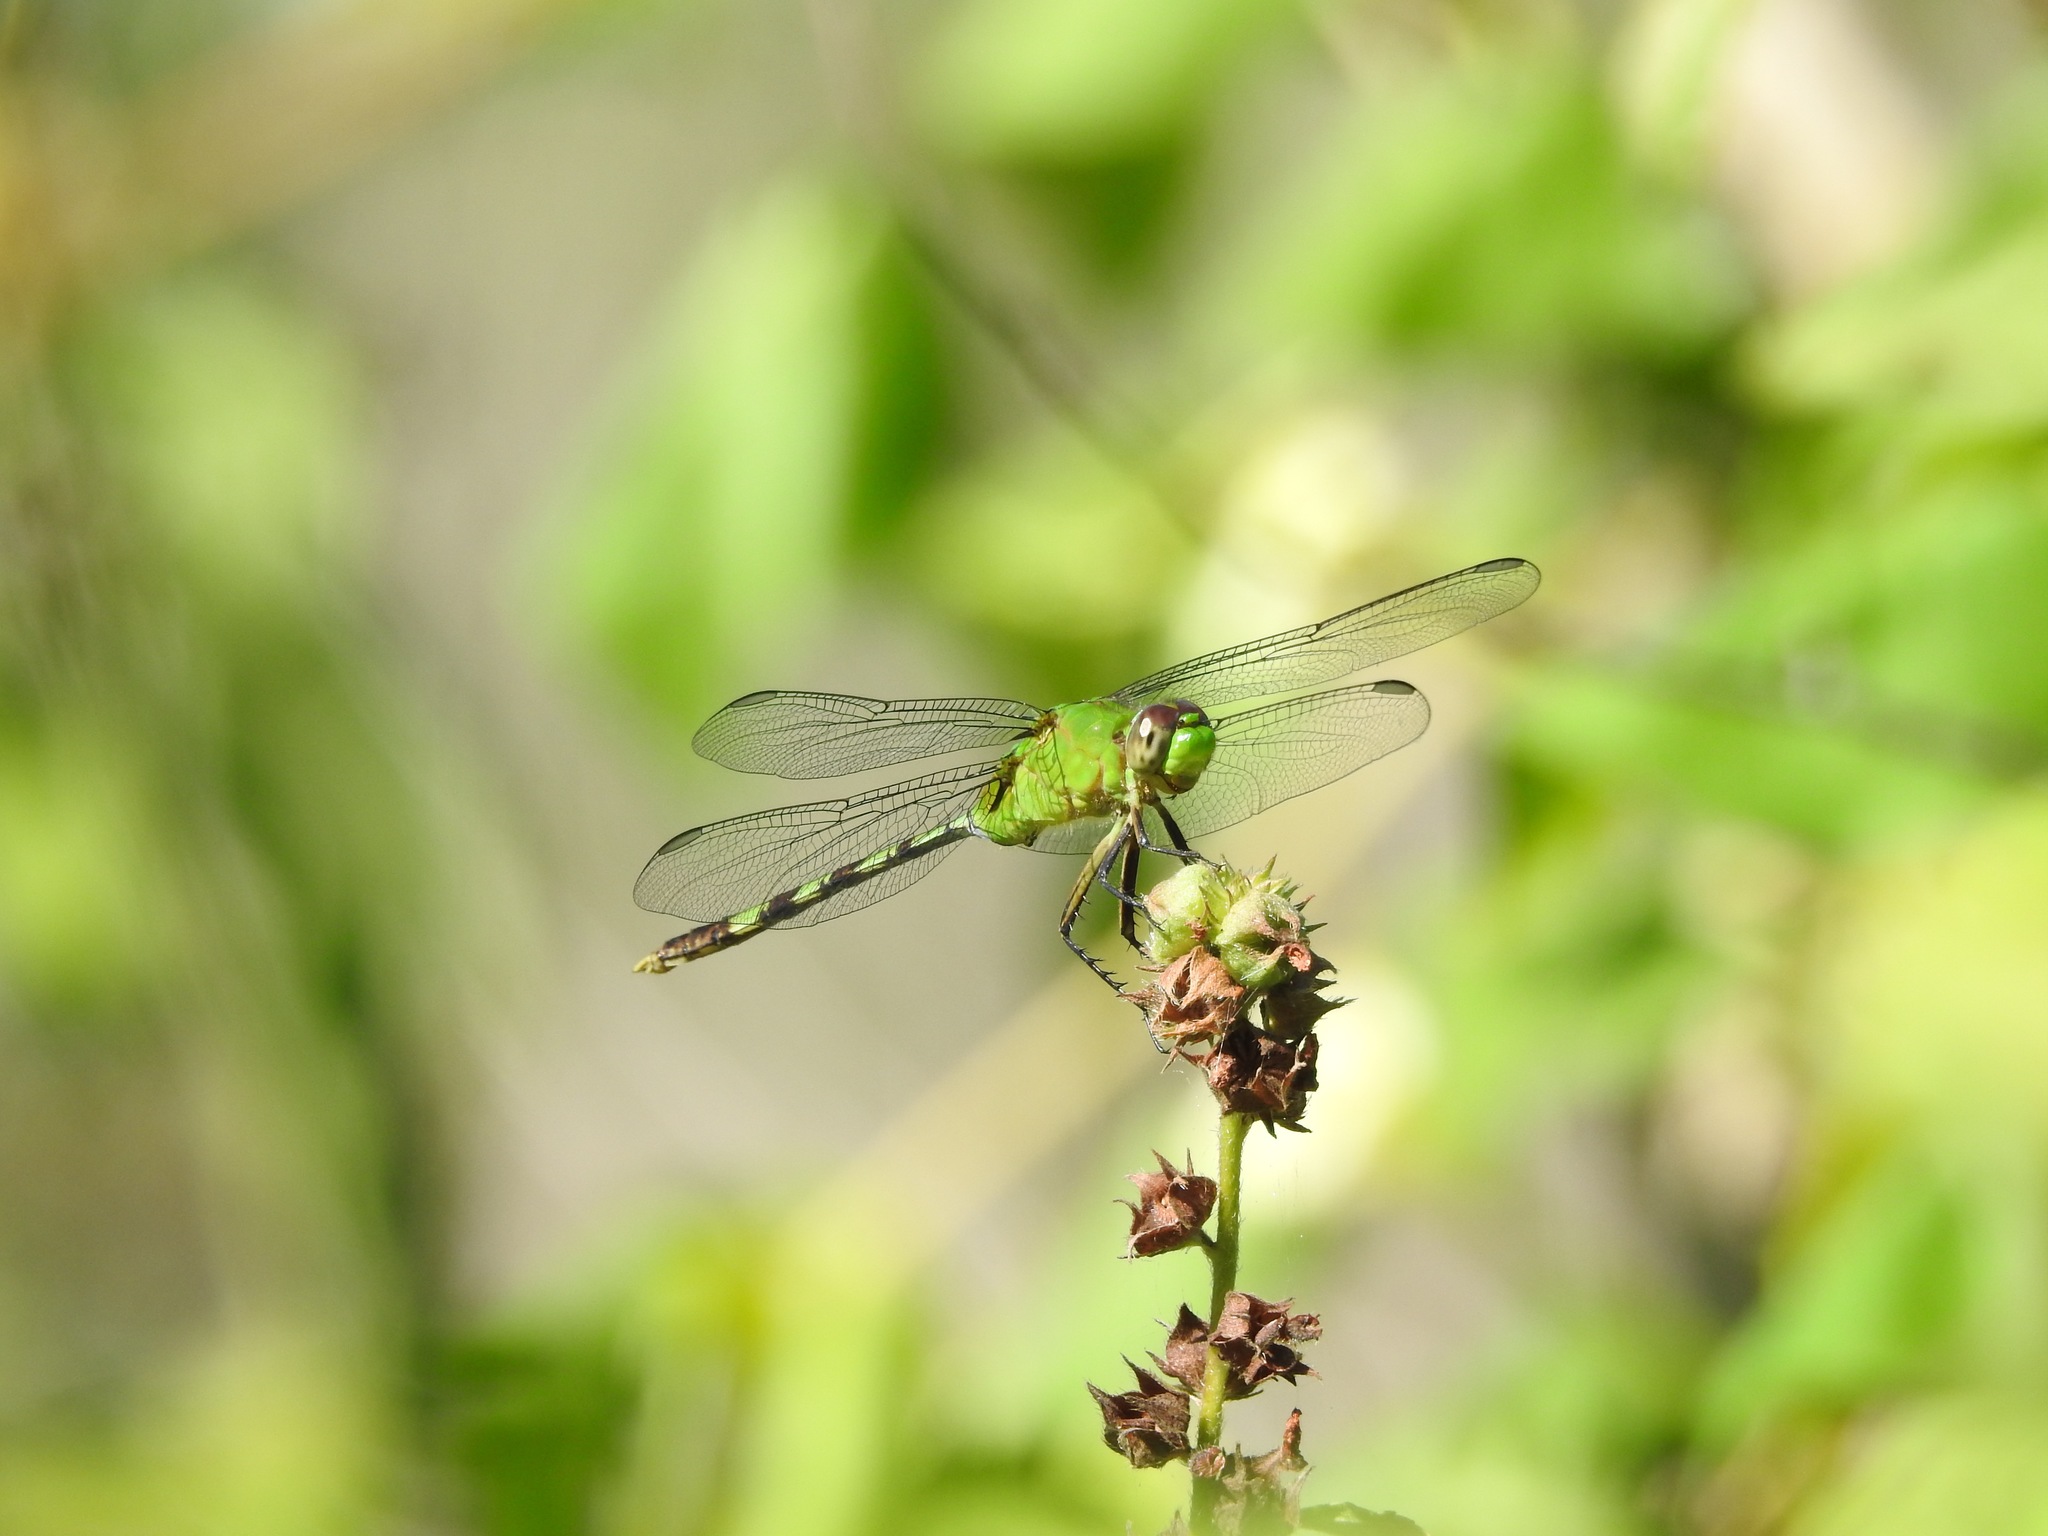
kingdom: Animalia
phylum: Arthropoda
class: Insecta
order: Odonata
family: Libellulidae
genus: Erythemis
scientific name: Erythemis vesiculosa
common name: Great pondhawk
